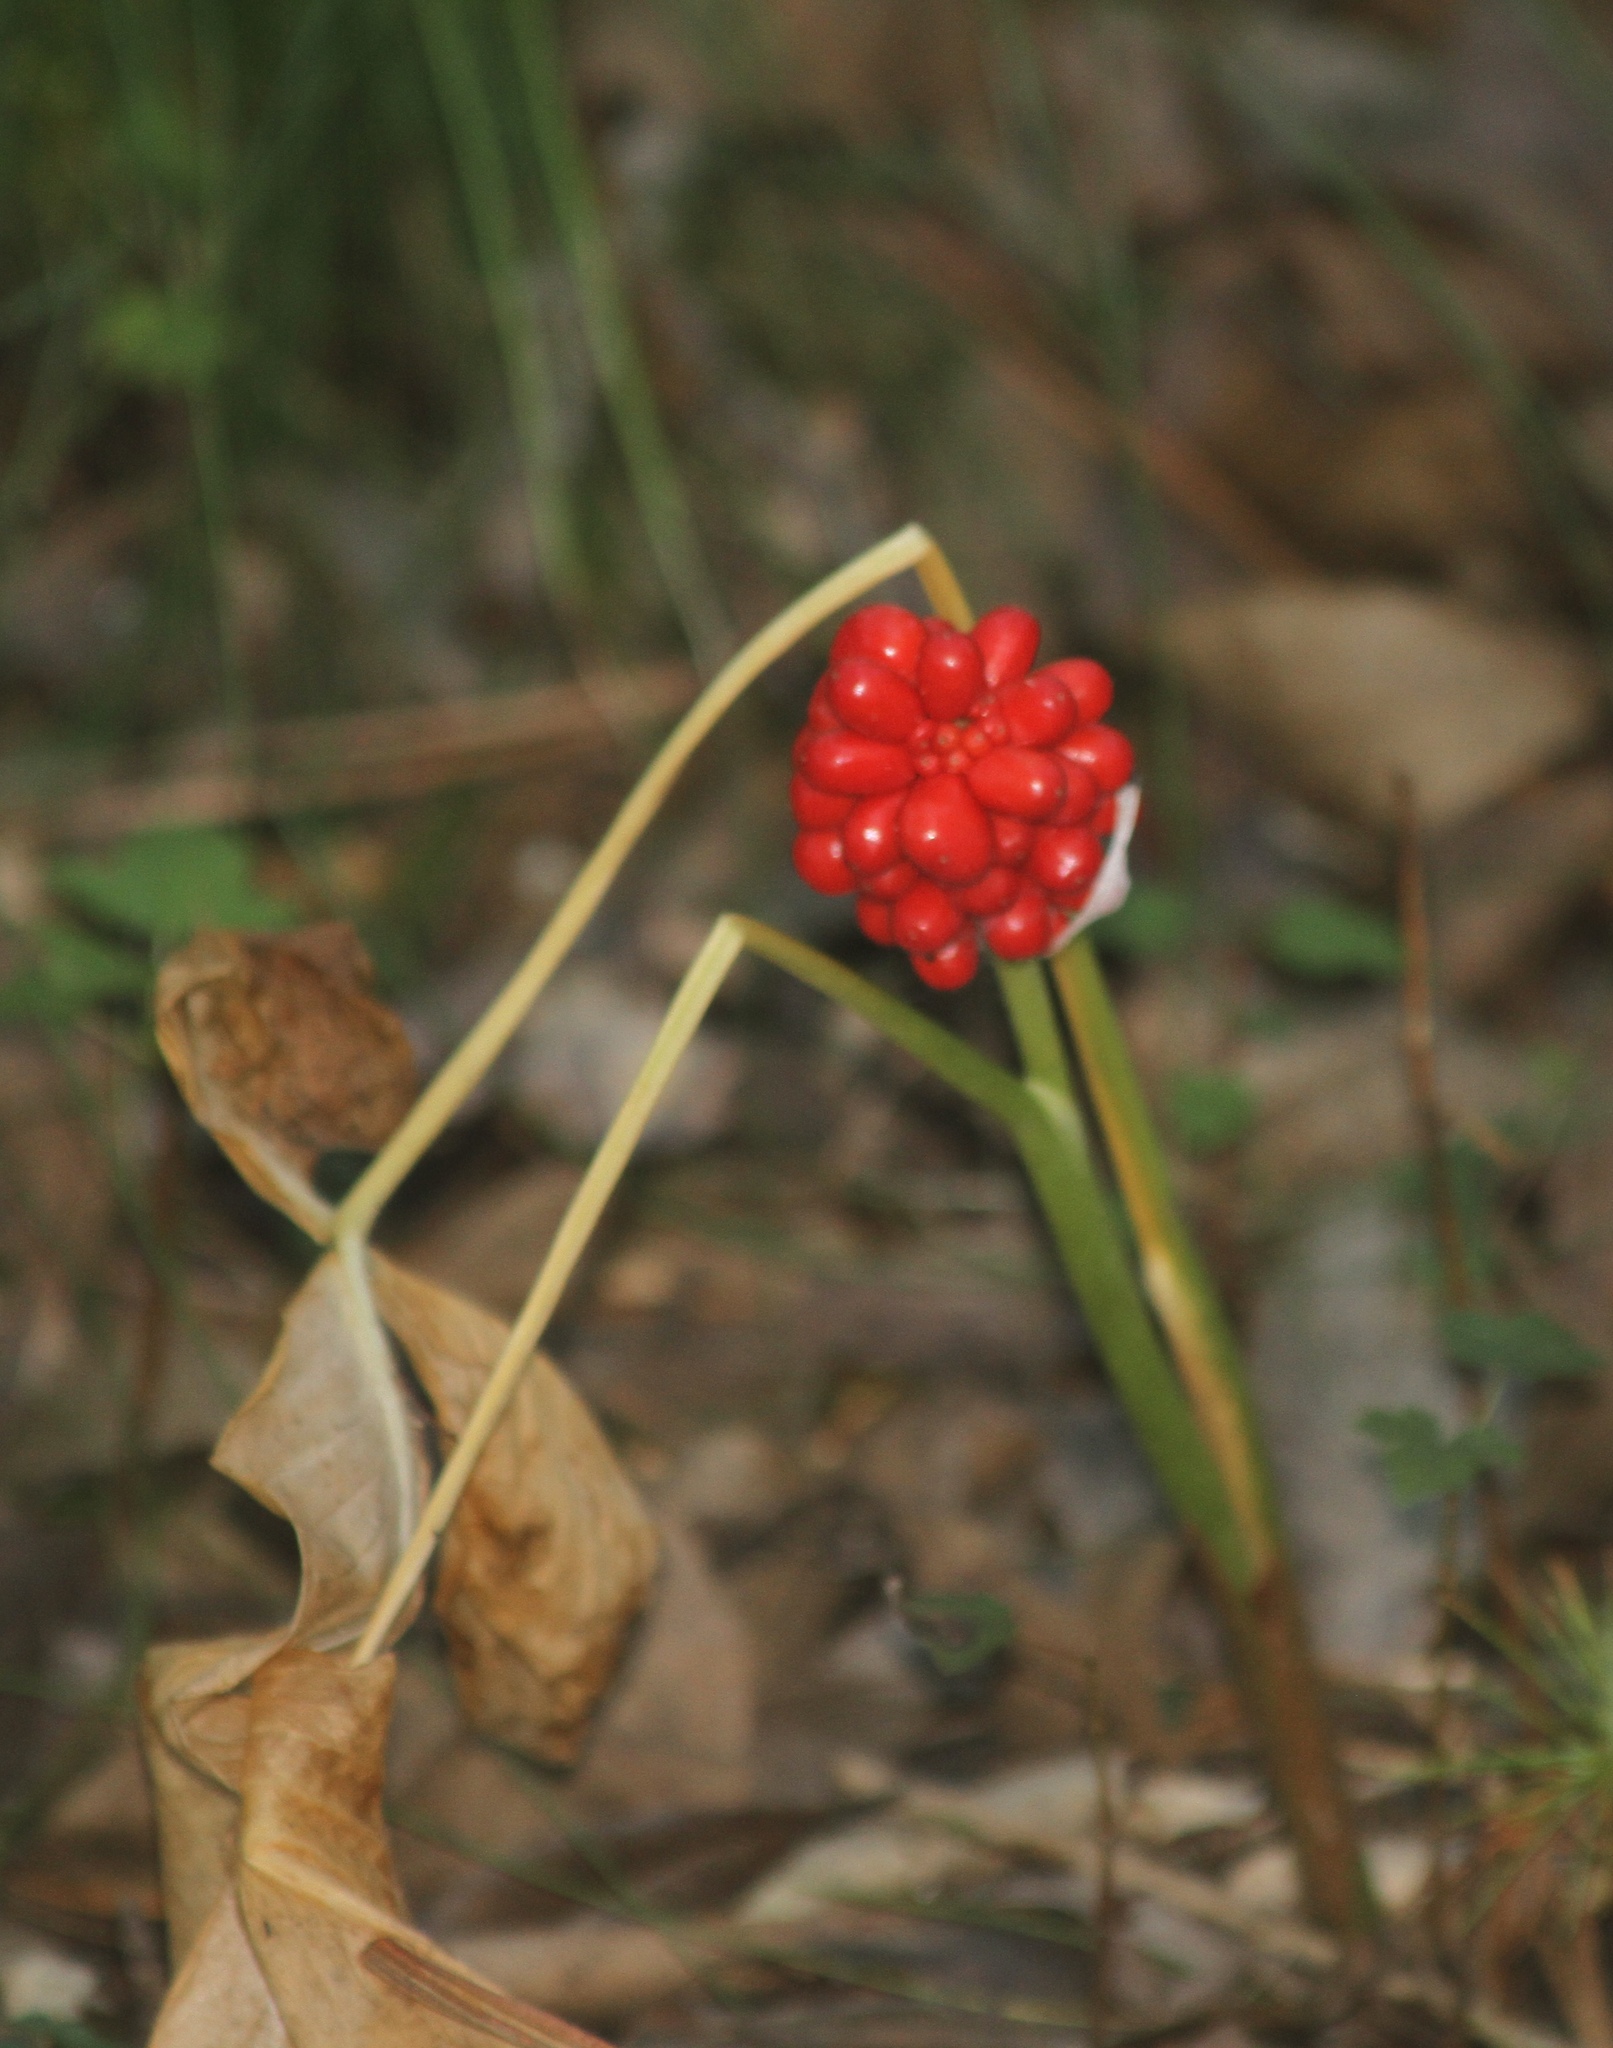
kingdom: Plantae
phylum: Tracheophyta
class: Liliopsida
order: Alismatales
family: Araceae
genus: Arisaema
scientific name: Arisaema triphyllum
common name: Jack-in-the-pulpit
